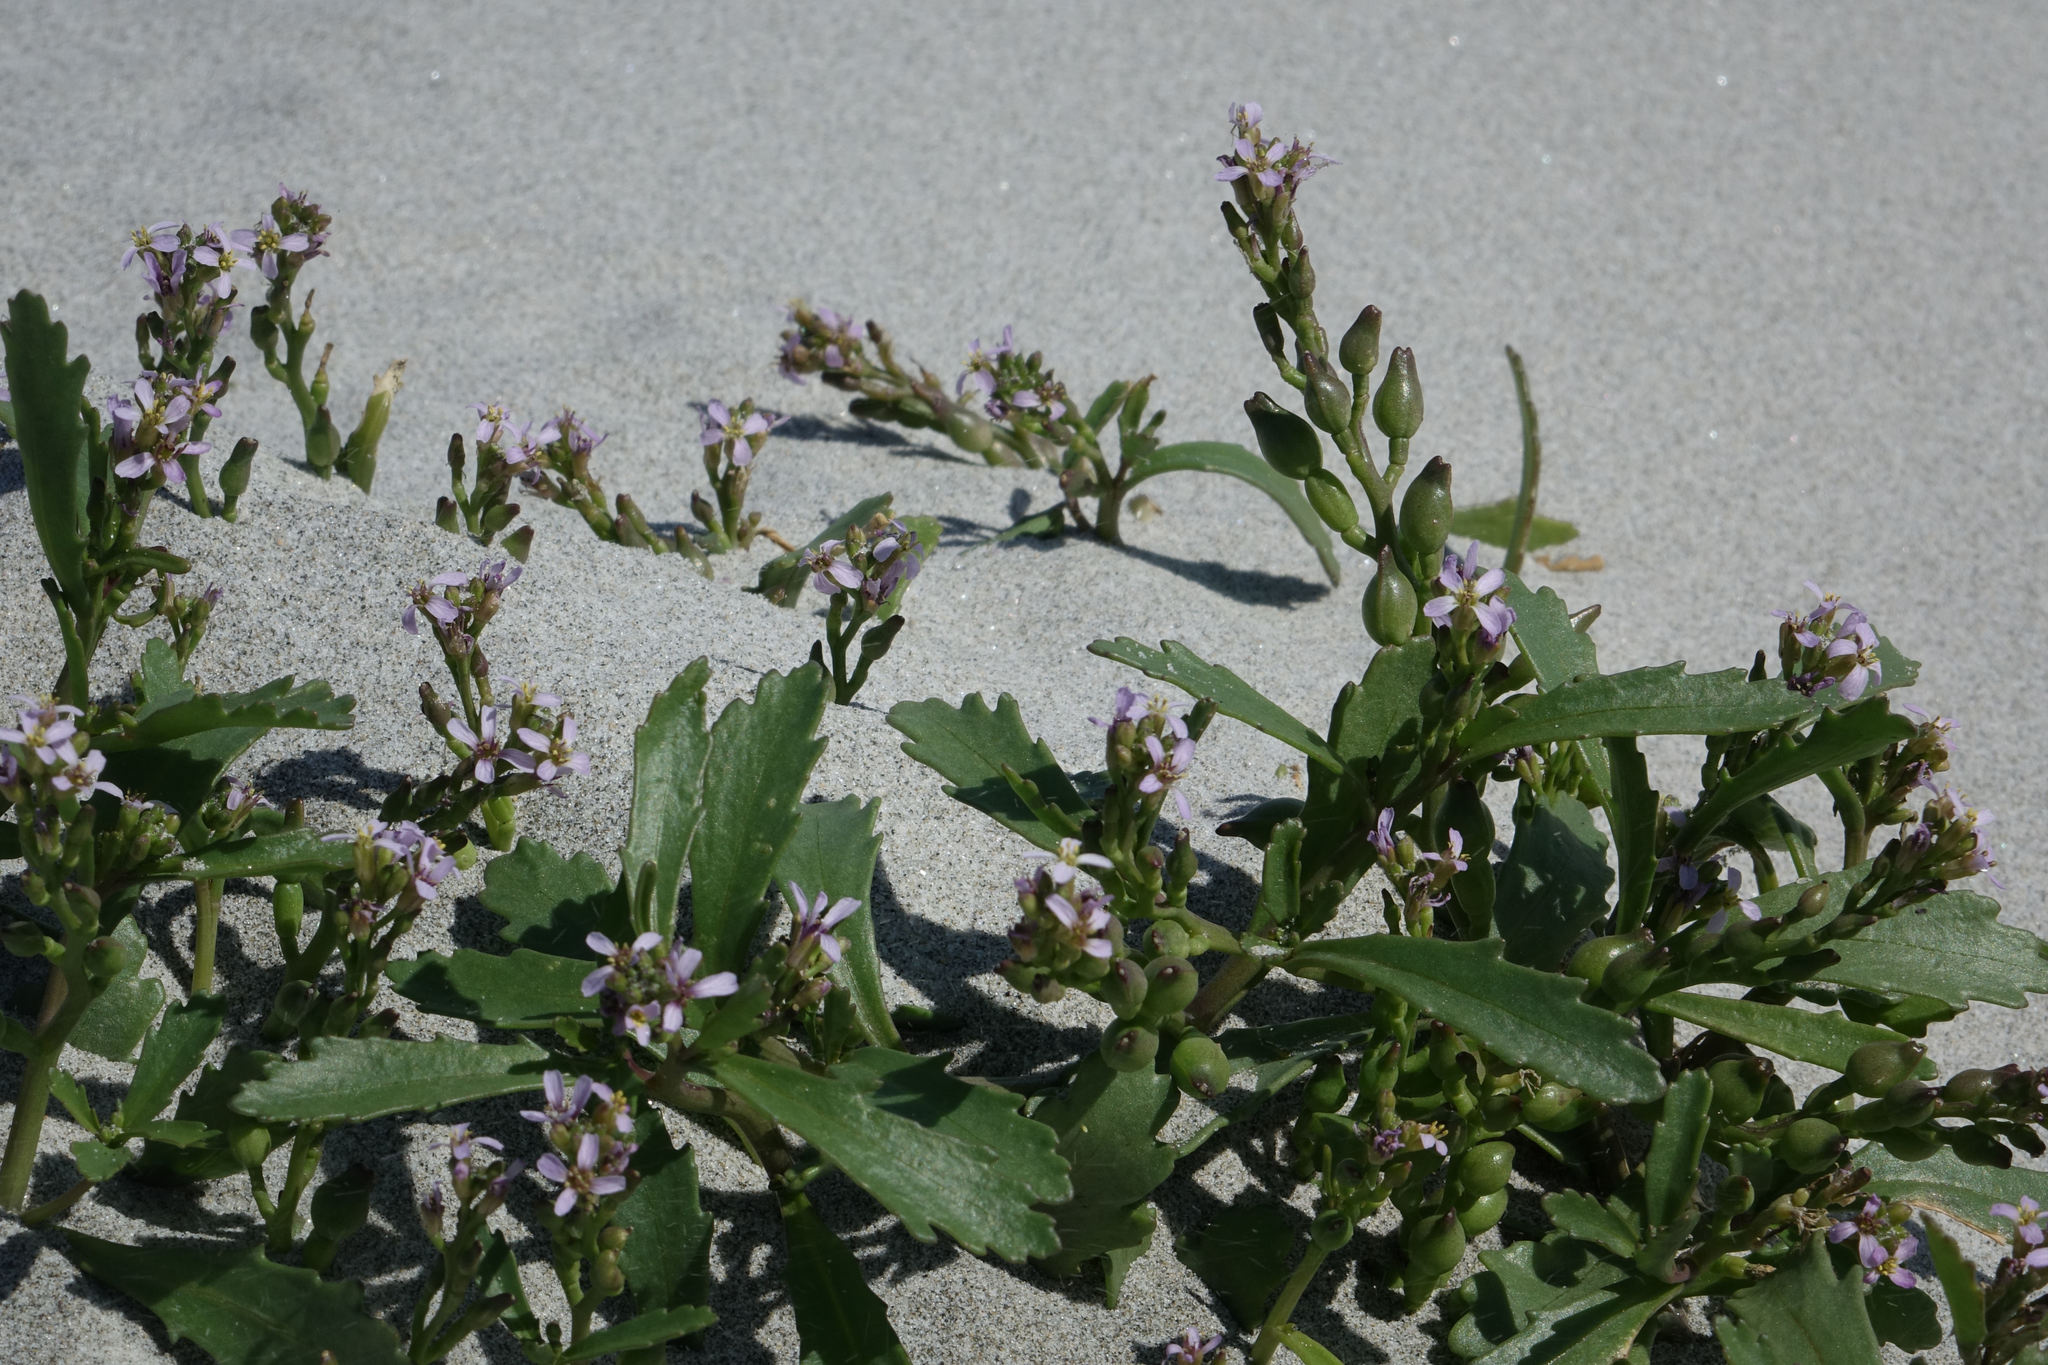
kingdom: Plantae
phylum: Tracheophyta
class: Magnoliopsida
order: Brassicales
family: Brassicaceae
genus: Cakile
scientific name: Cakile edentula
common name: American sea rocket
